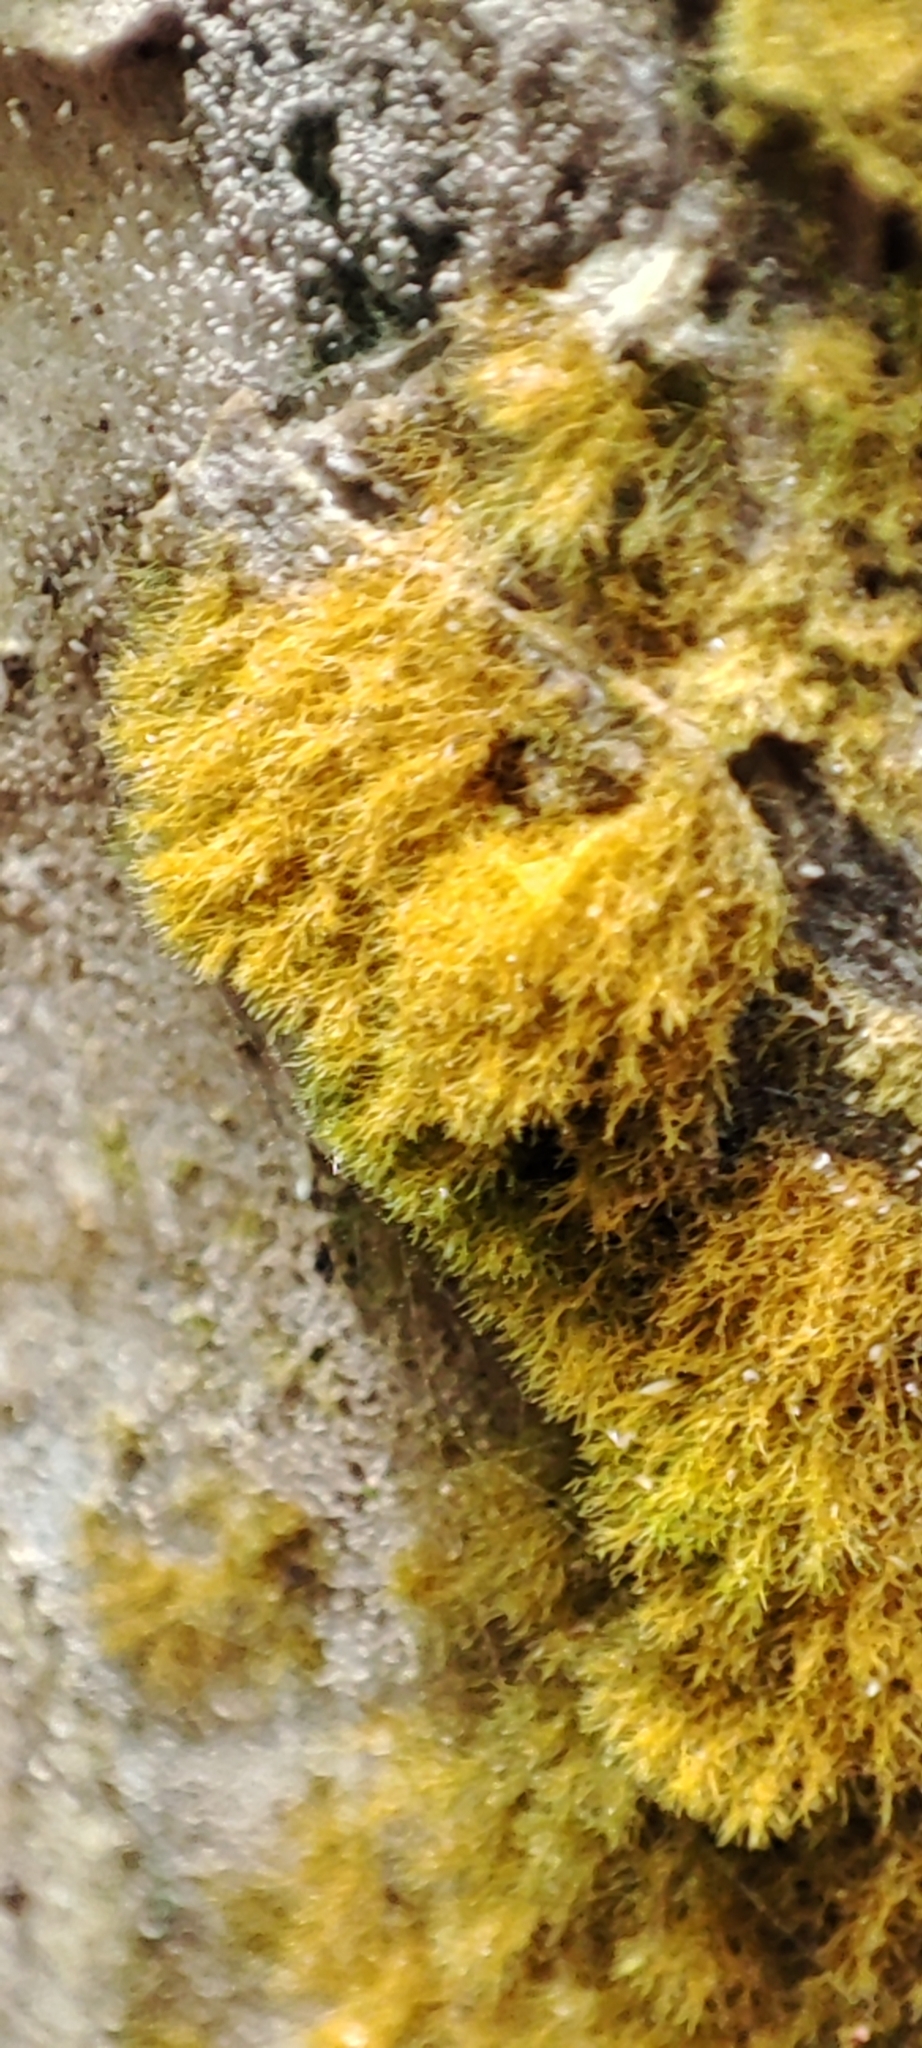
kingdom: Plantae
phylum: Chlorophyta
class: Ulvophyceae
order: Trentepohliales
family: Trentepohliaceae
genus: Trentepohlia
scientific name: Trentepohlia
